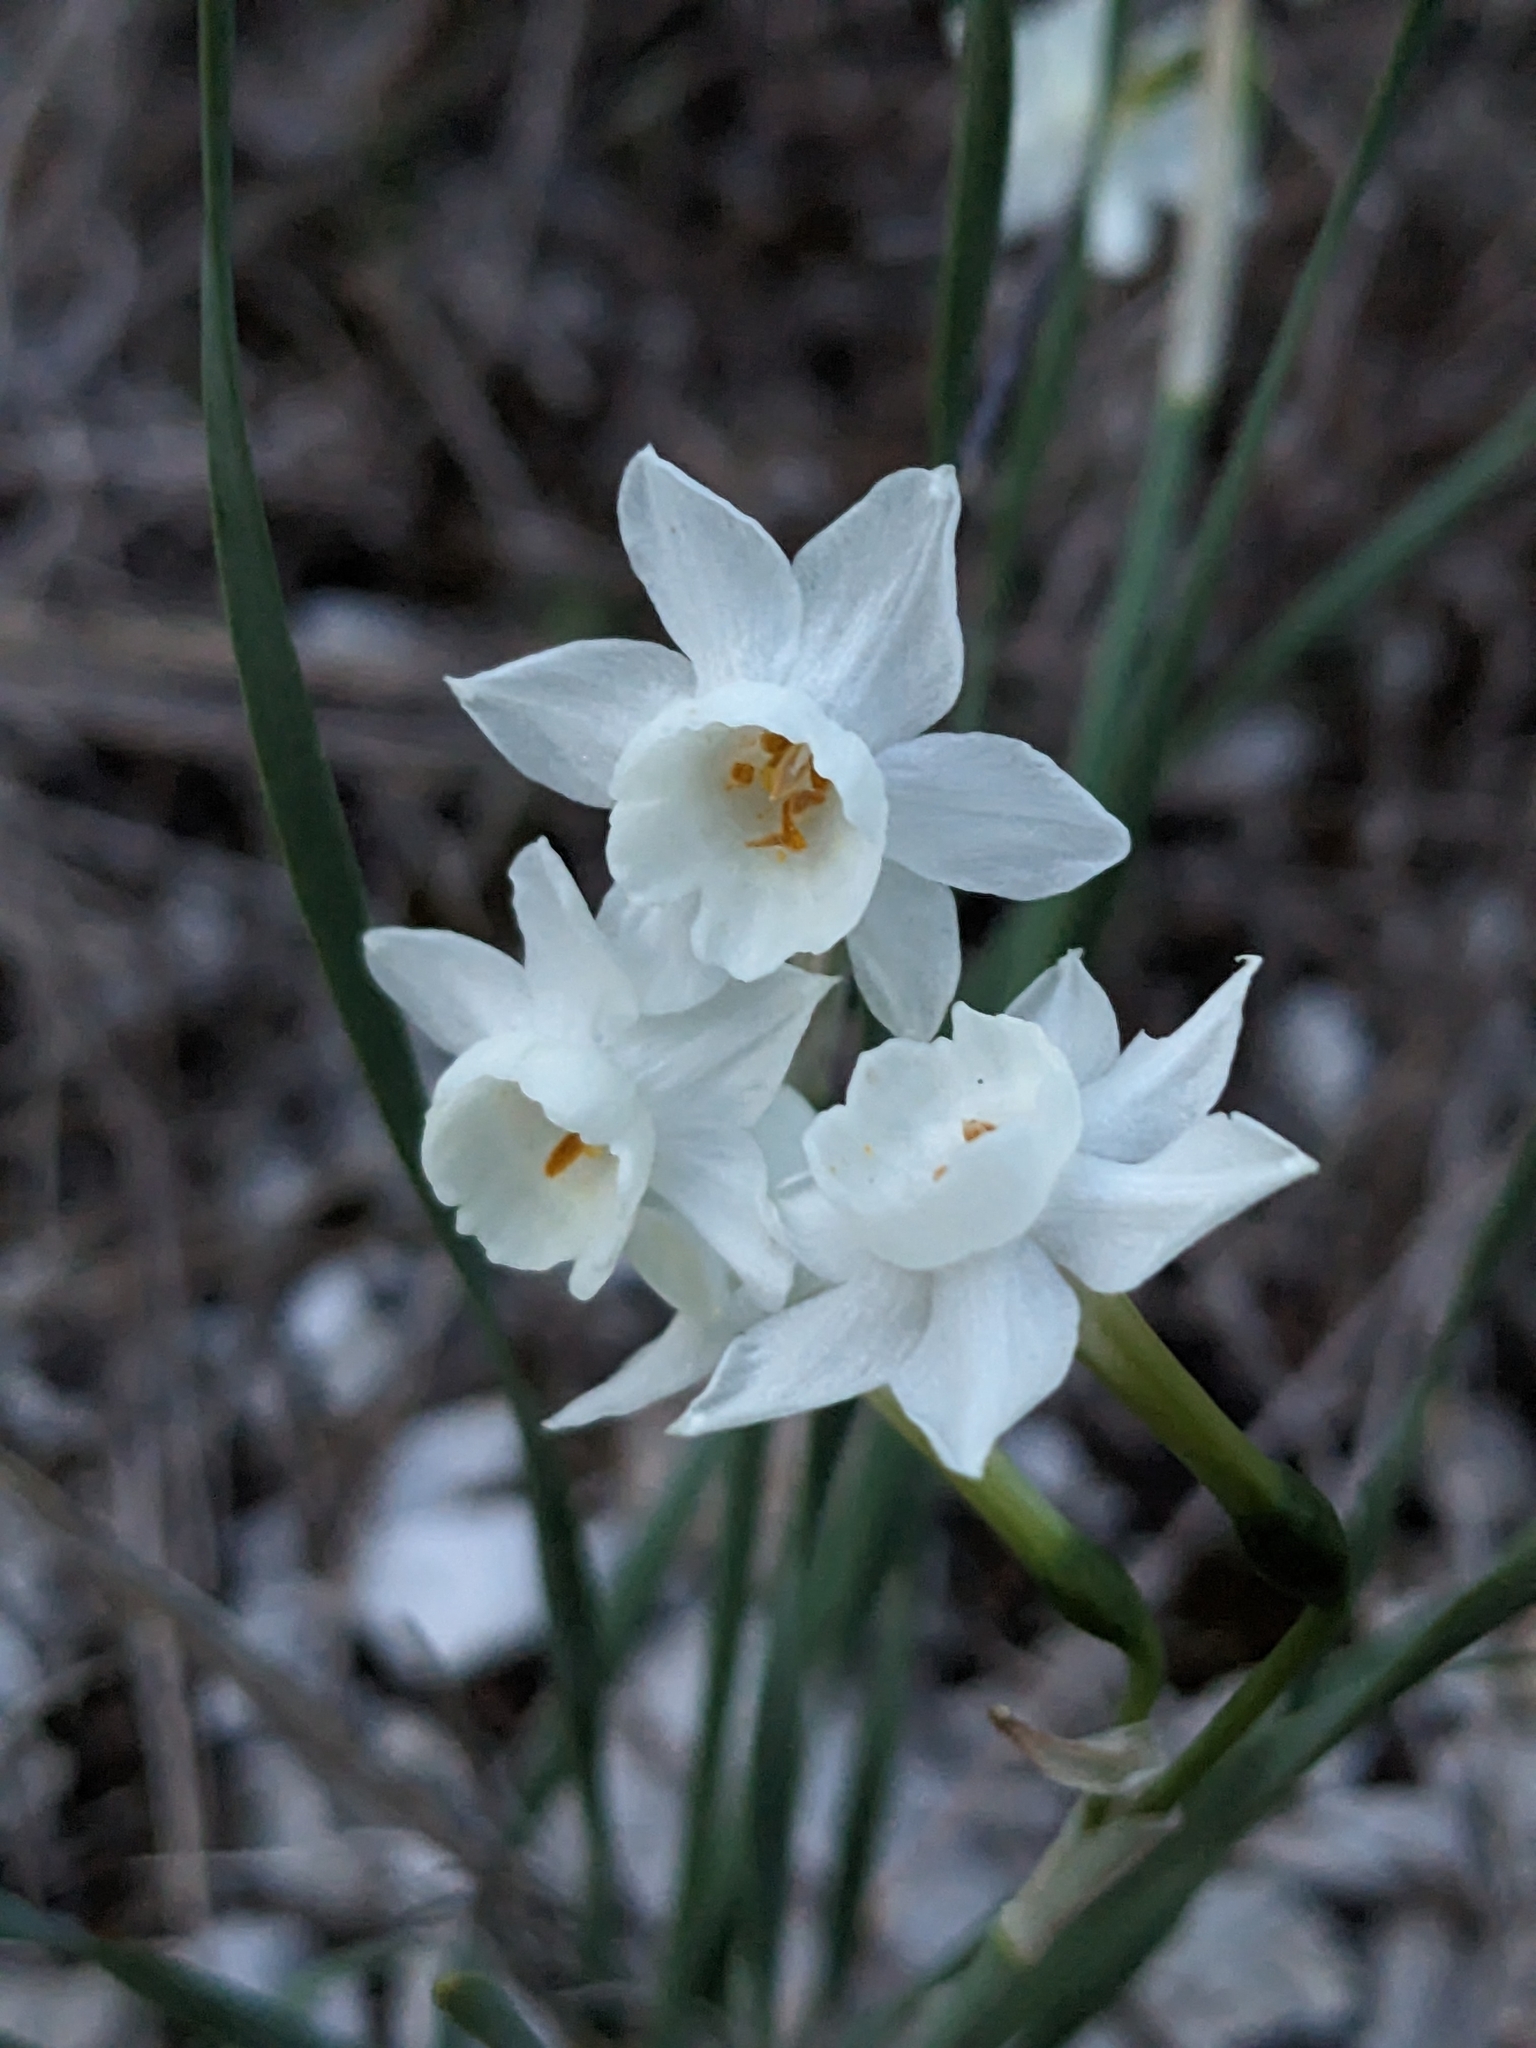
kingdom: Plantae
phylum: Tracheophyta
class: Liliopsida
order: Asparagales
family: Amaryllidaceae
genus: Narcissus
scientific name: Narcissus dubius
